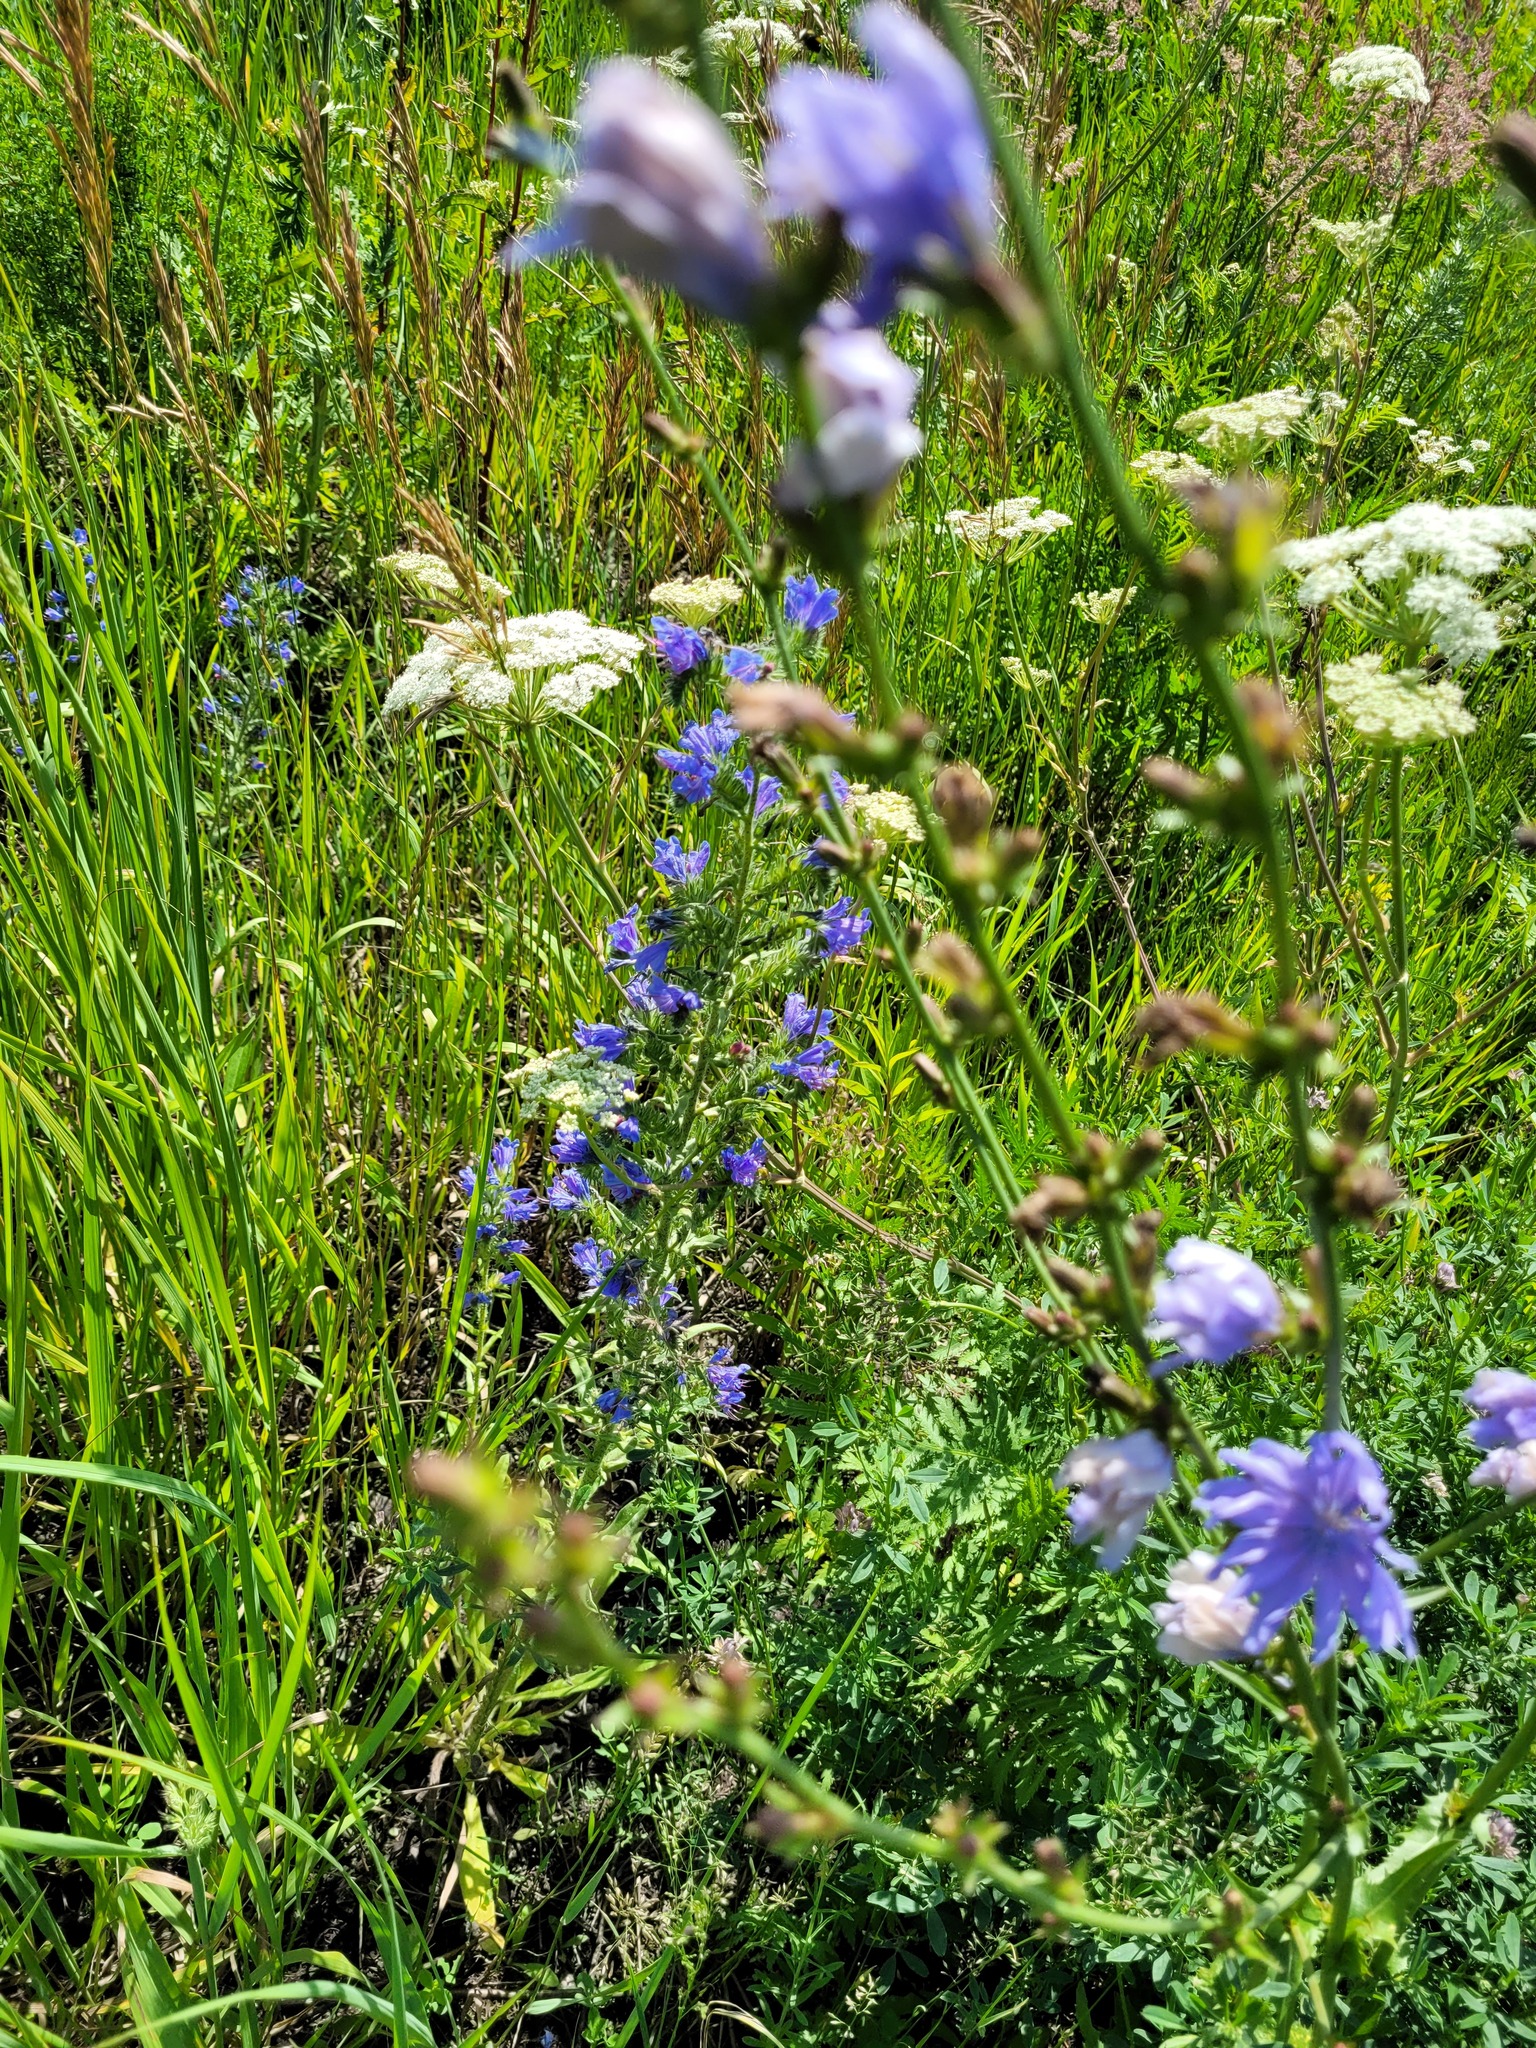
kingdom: Plantae
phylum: Tracheophyta
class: Magnoliopsida
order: Boraginales
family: Boraginaceae
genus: Echium
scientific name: Echium vulgare
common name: Common viper's bugloss
